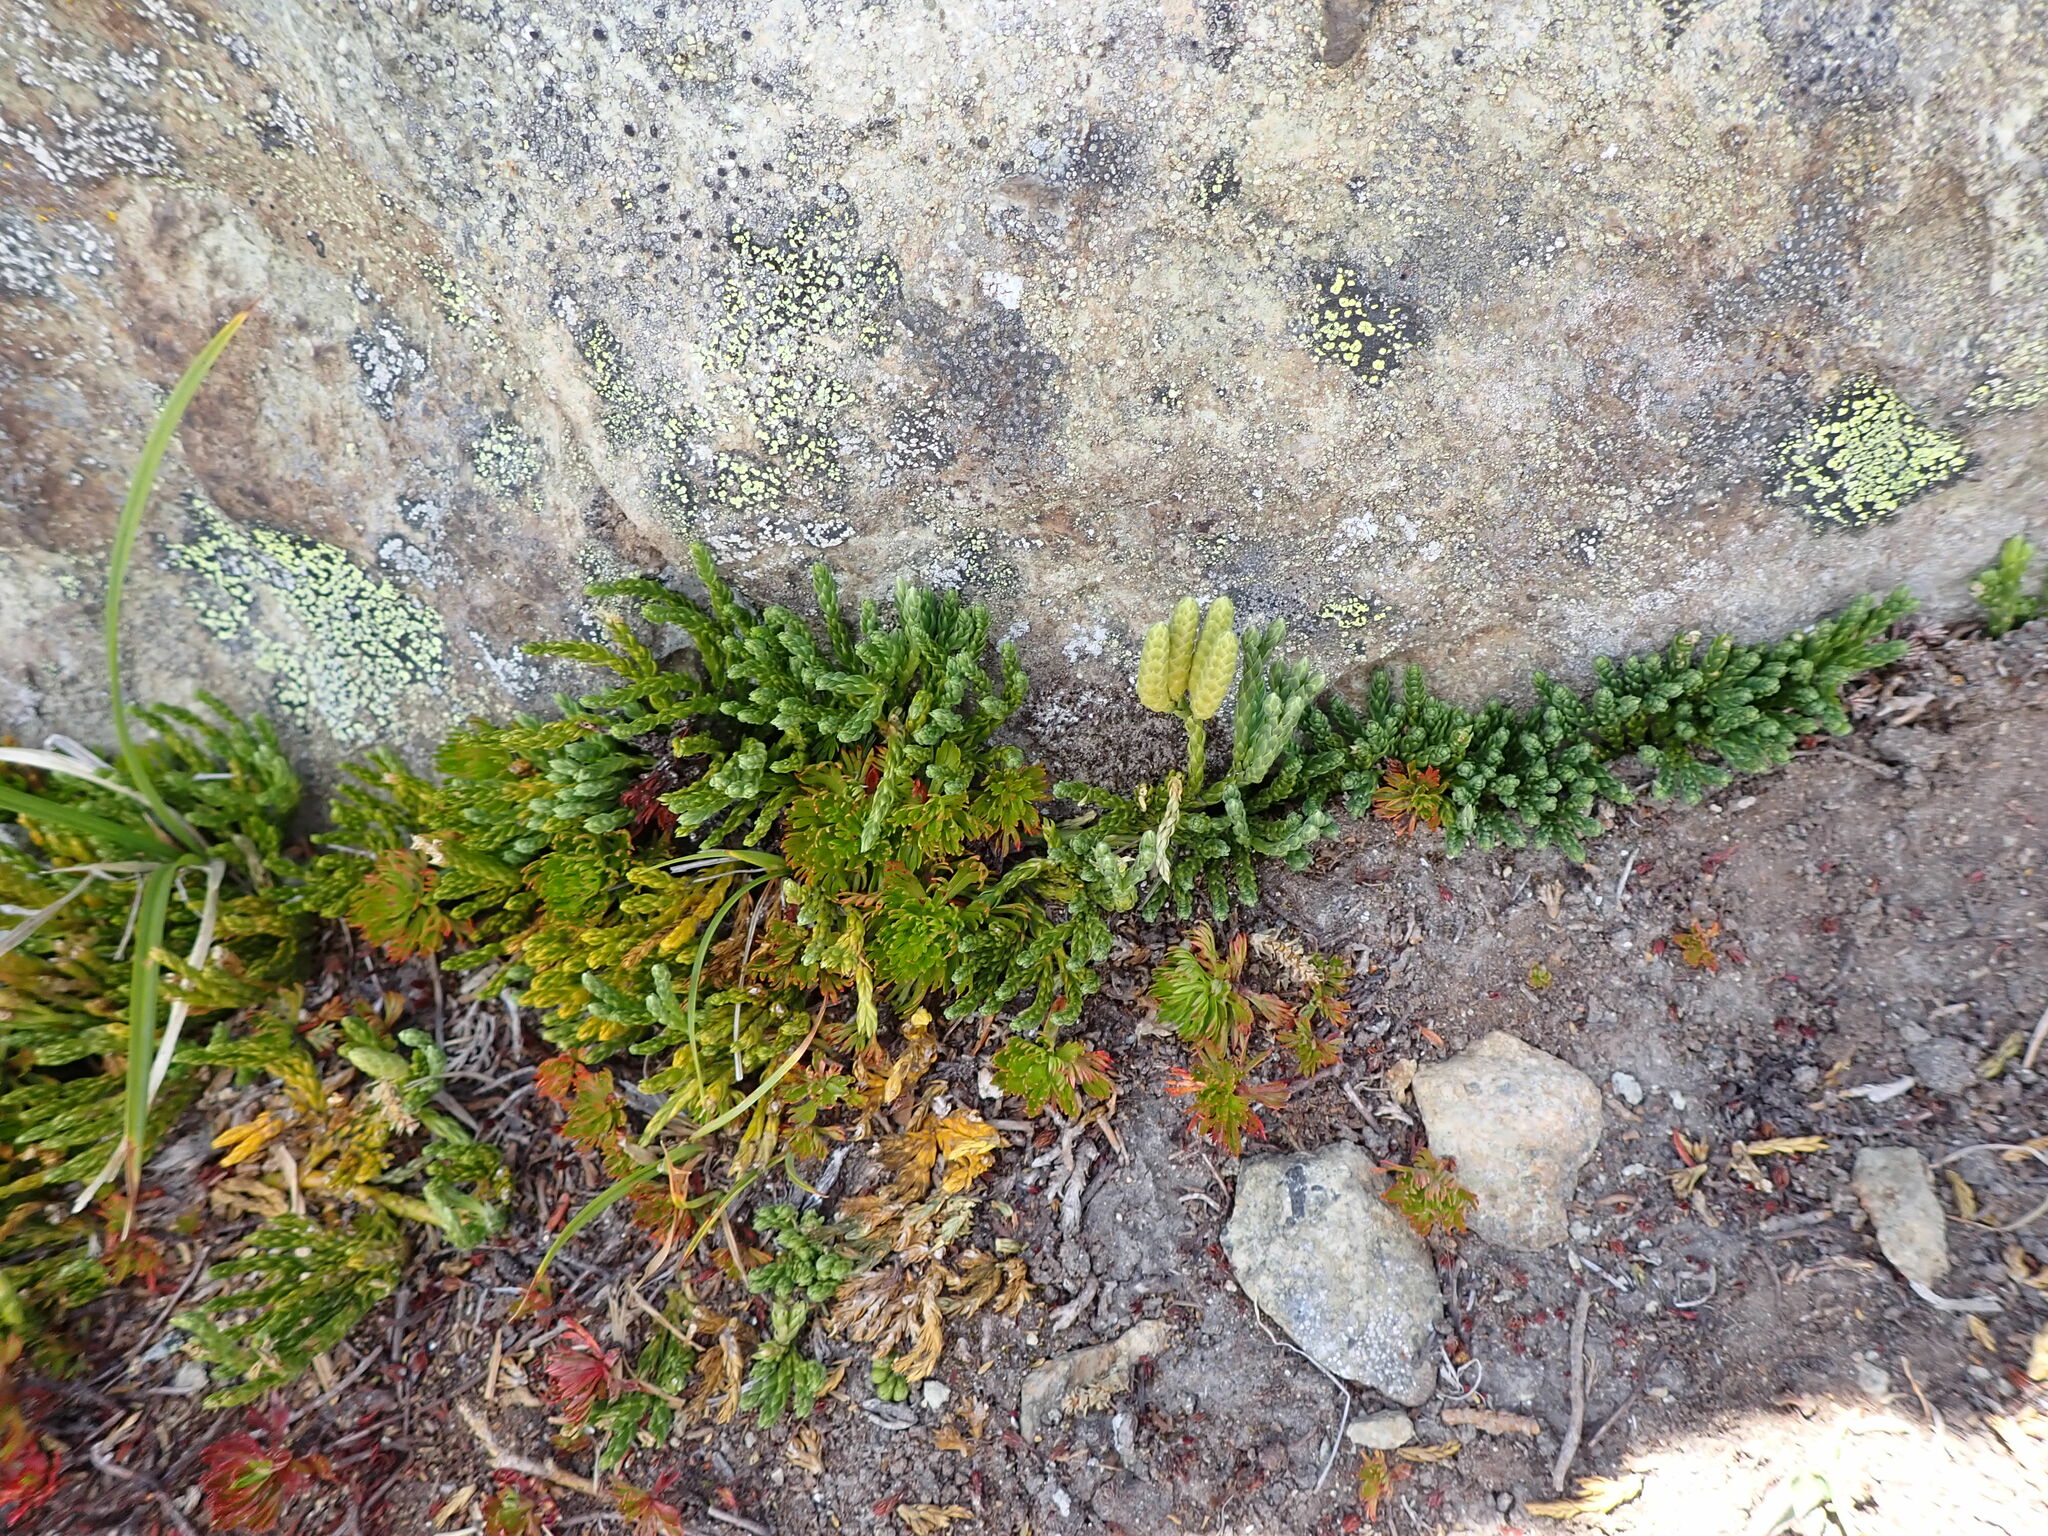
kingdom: Plantae
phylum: Tracheophyta
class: Lycopodiopsida
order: Lycopodiales
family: Lycopodiaceae
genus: Diphasiastrum
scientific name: Diphasiastrum alpinum
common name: Alpine clubmoss
